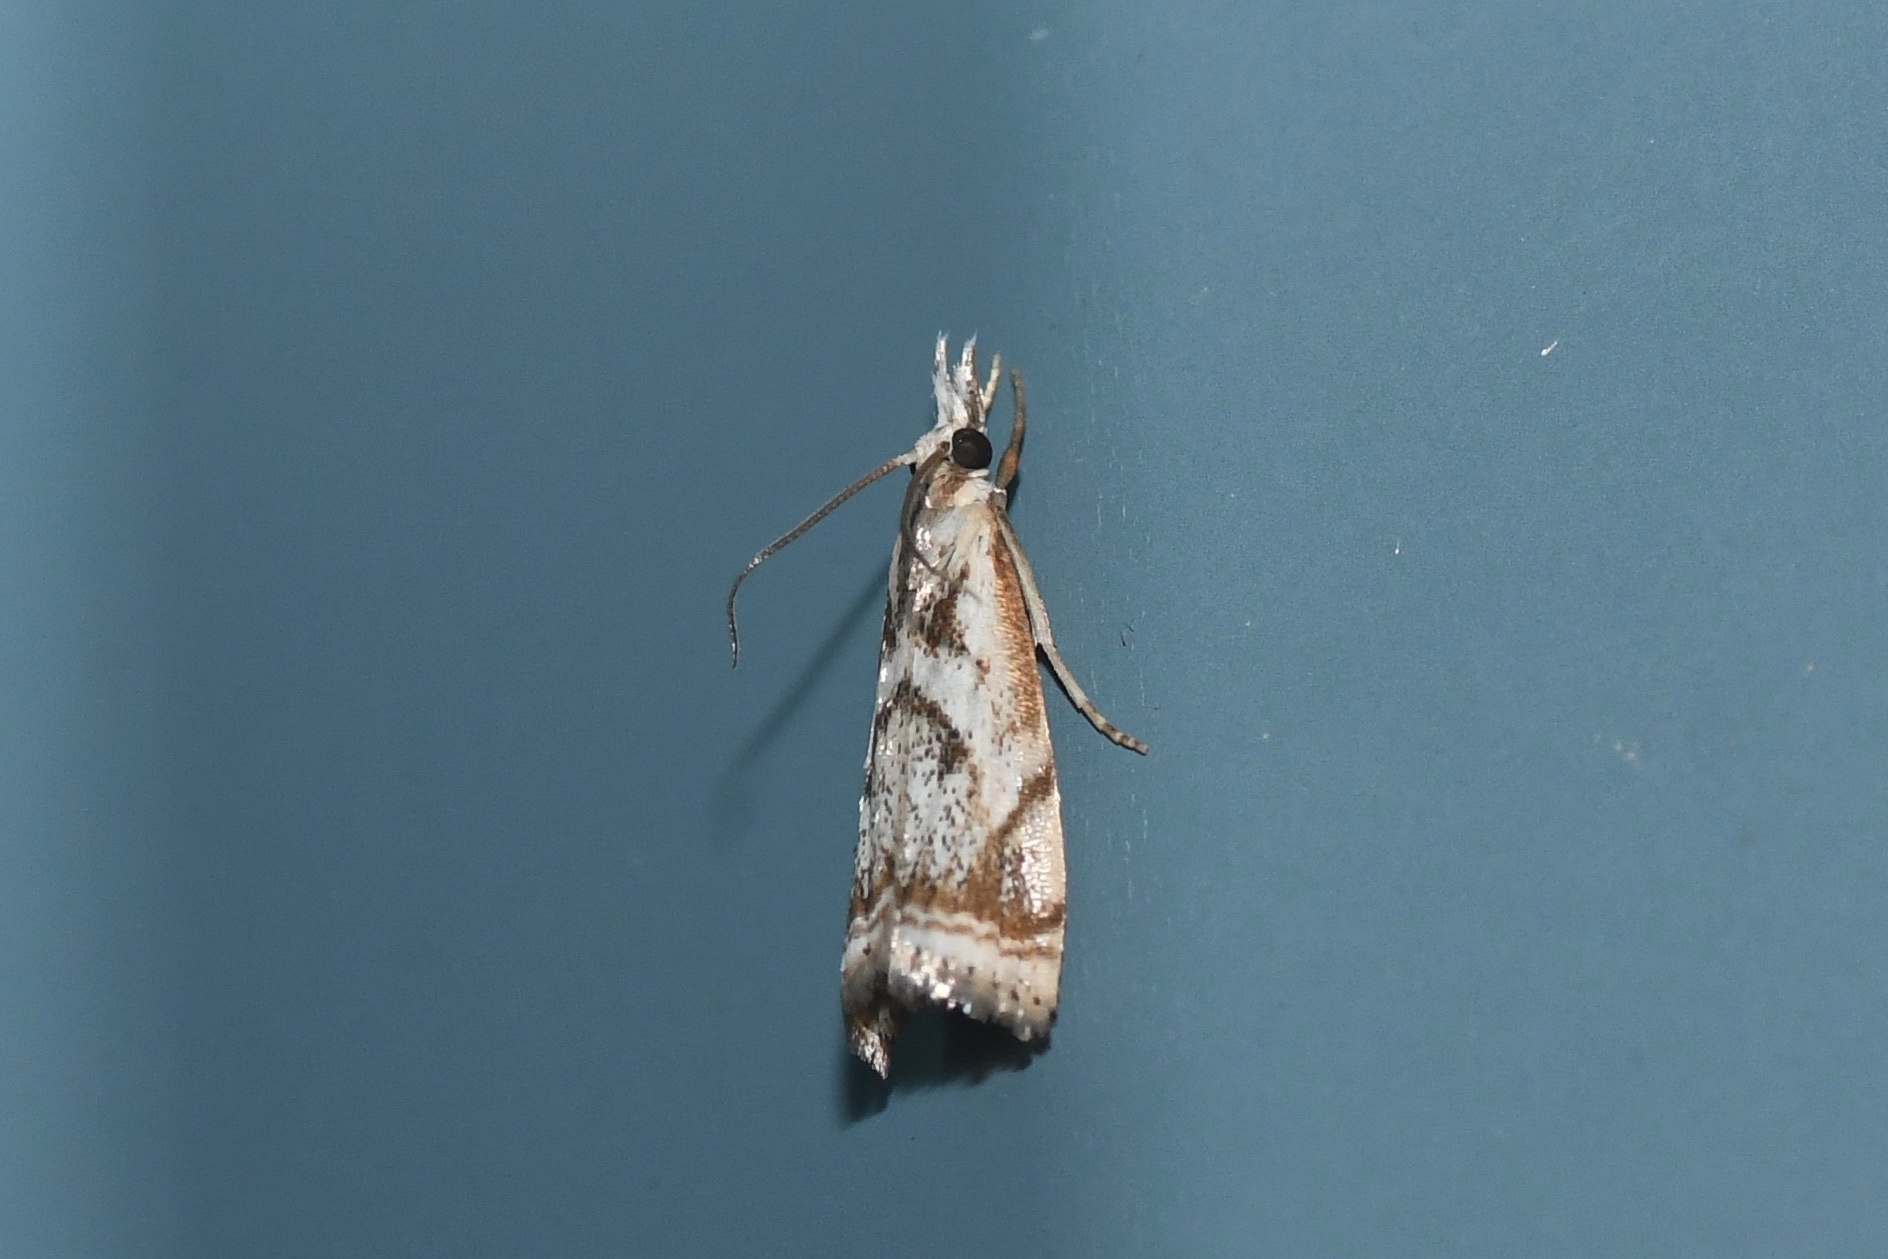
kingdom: Animalia
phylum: Arthropoda
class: Insecta
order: Lepidoptera
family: Crambidae
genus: Microcrambus
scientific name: Microcrambus elegans
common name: Elegant grass-veneer
